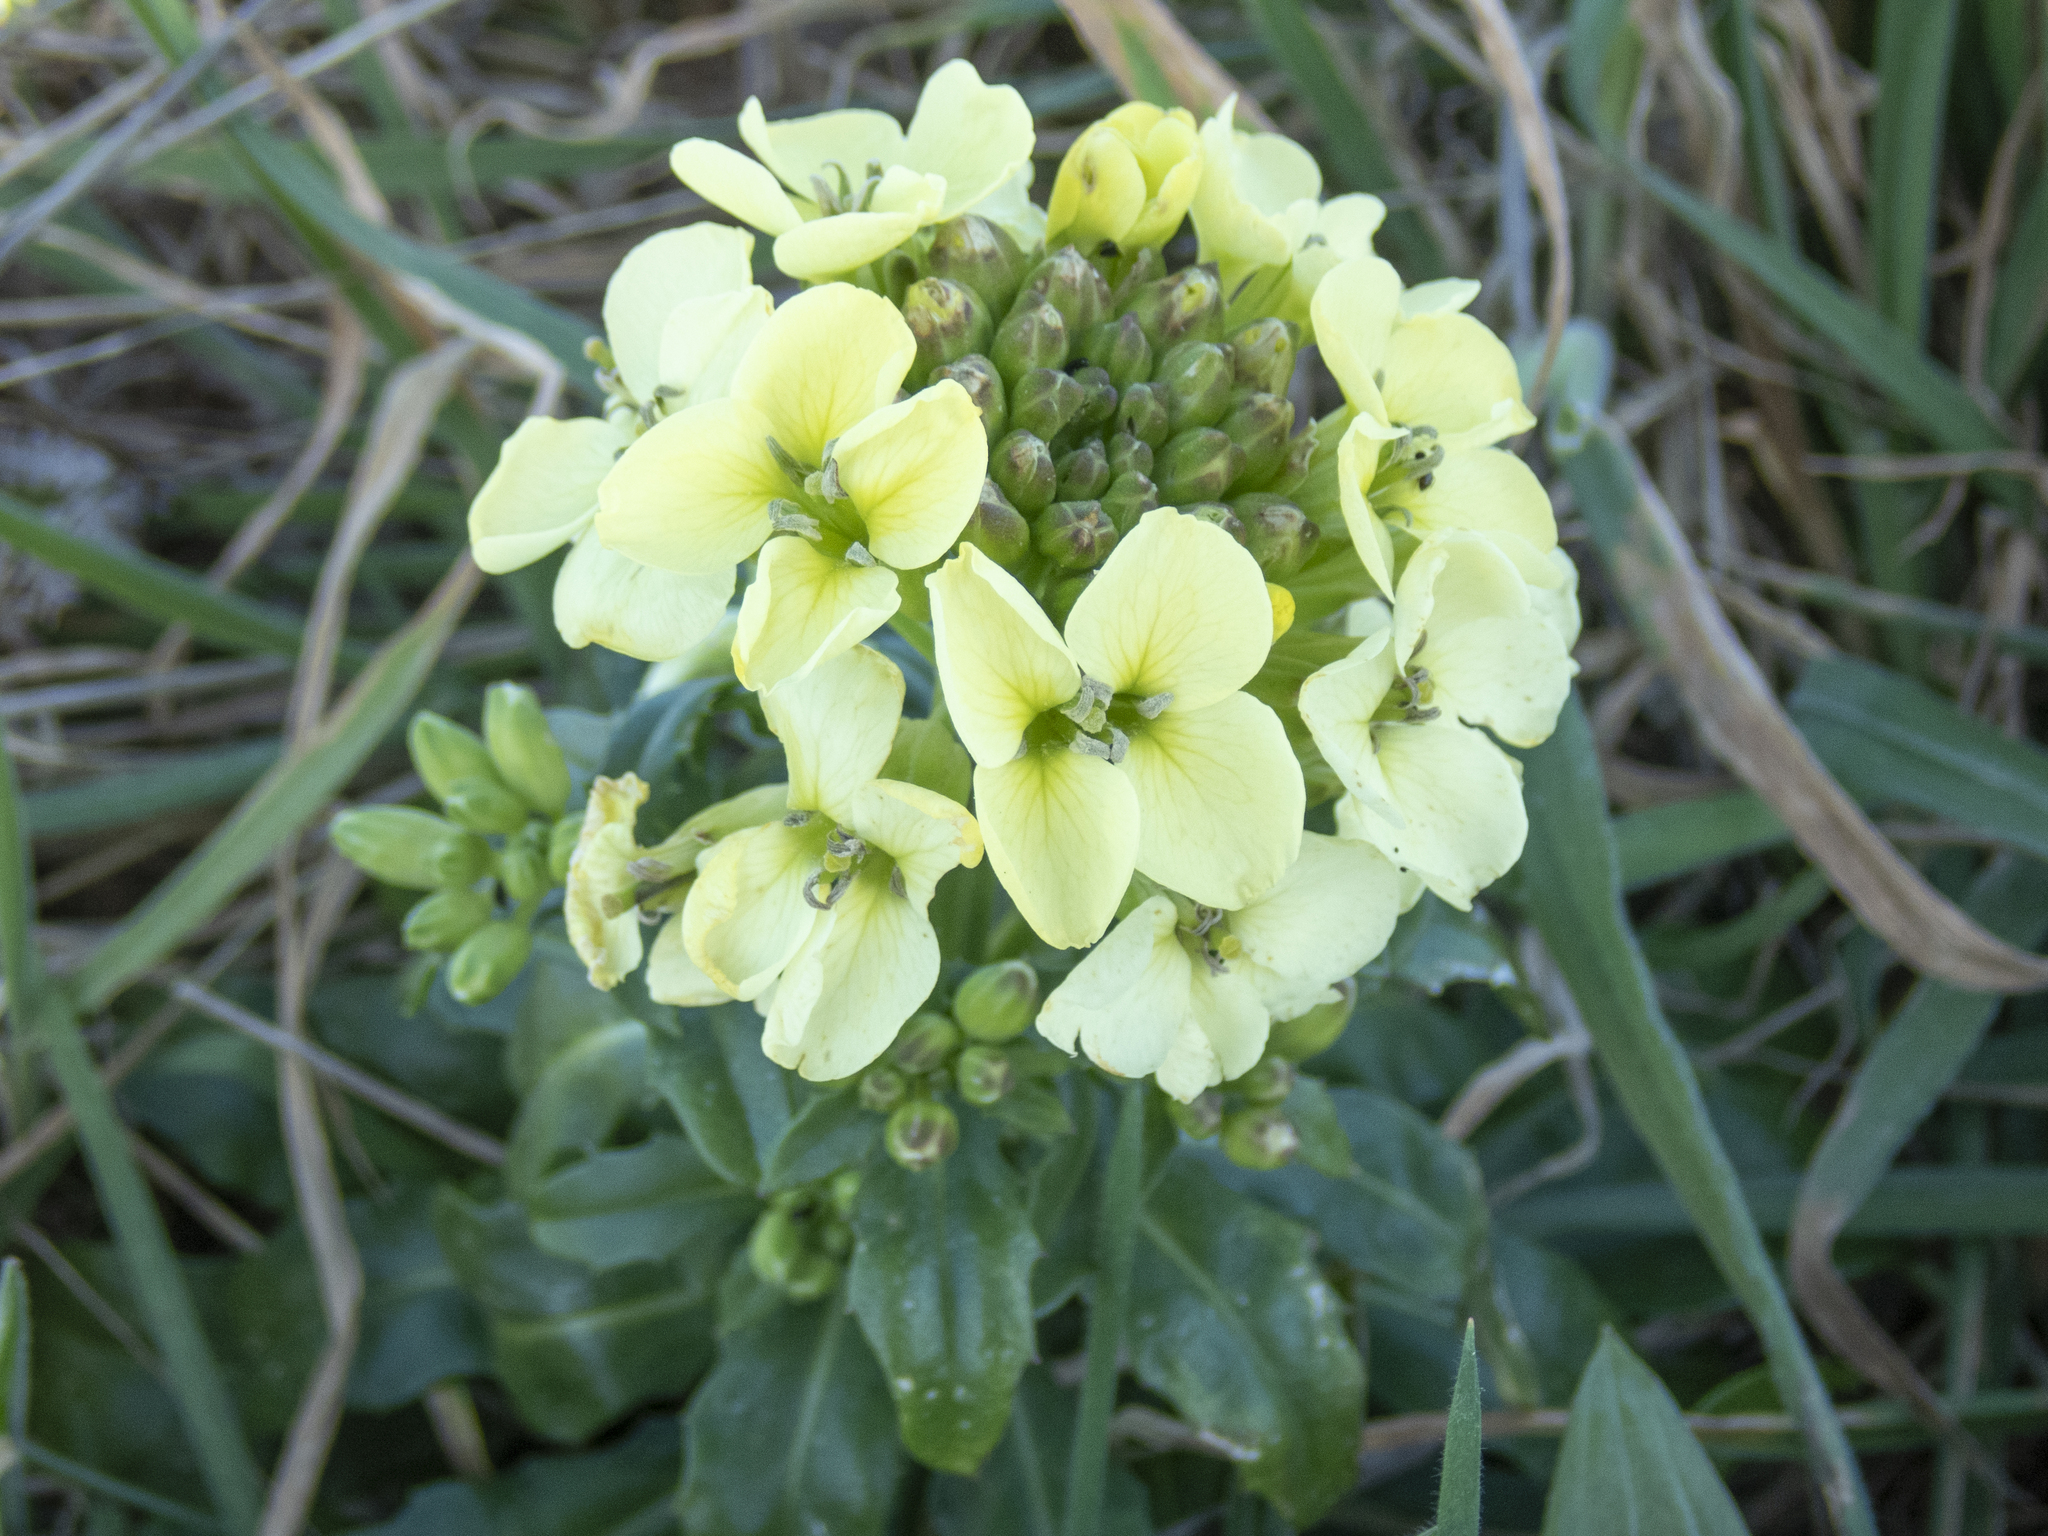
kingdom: Plantae
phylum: Tracheophyta
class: Magnoliopsida
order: Brassicales
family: Brassicaceae
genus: Erysimum
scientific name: Erysimum concinnum
